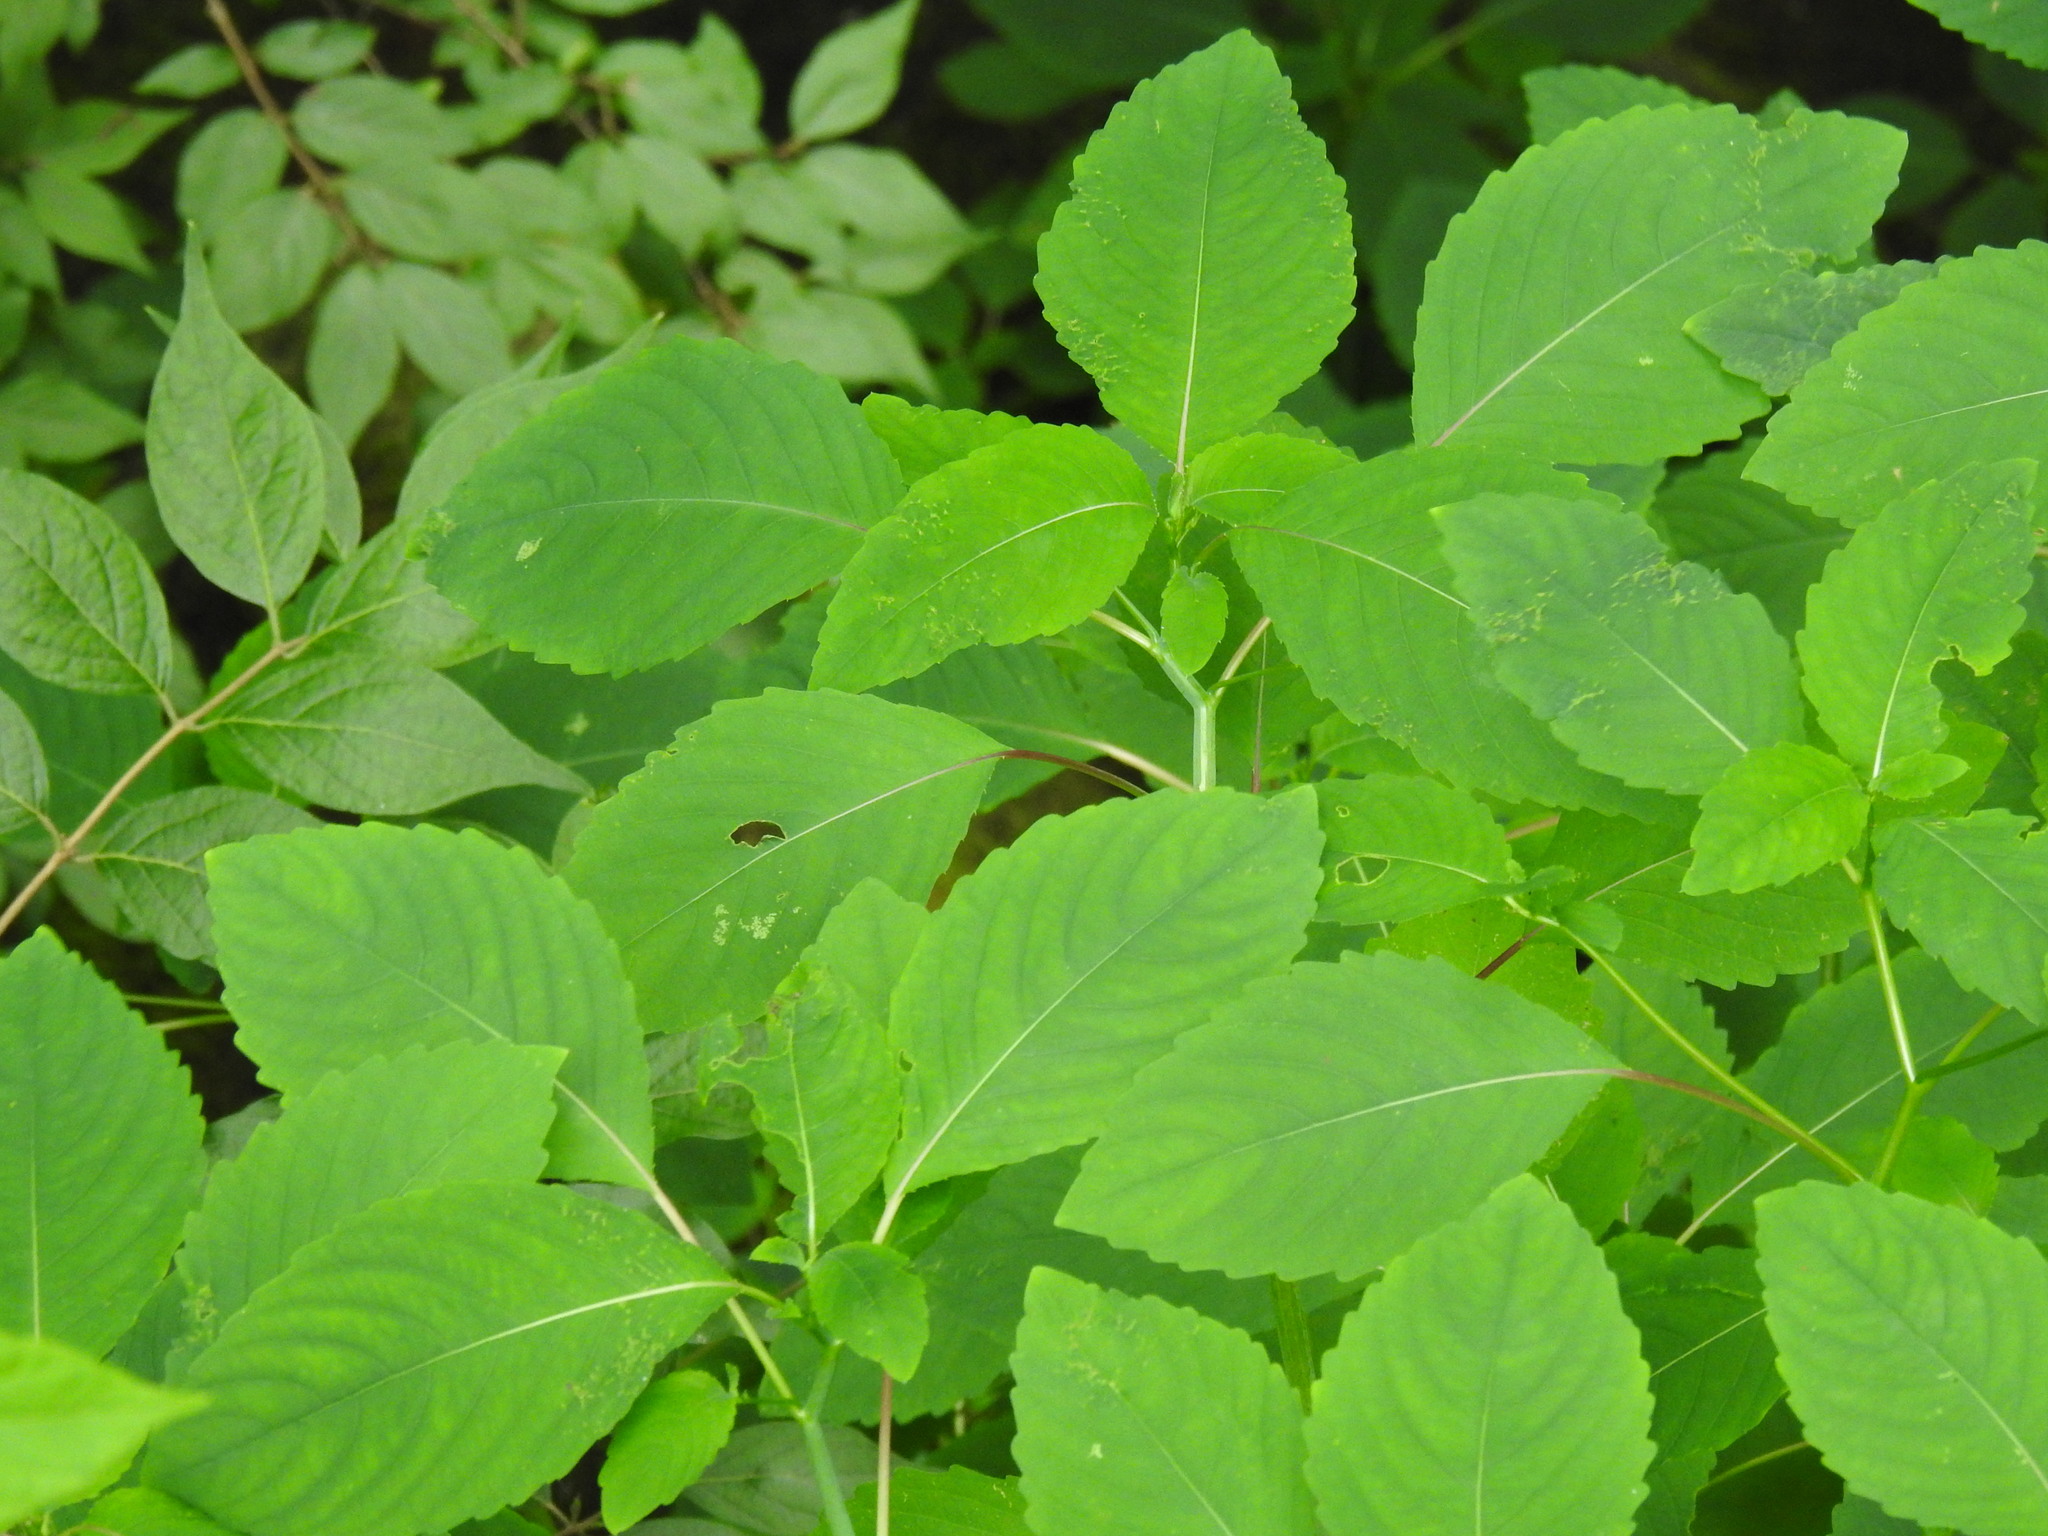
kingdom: Plantae
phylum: Tracheophyta
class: Magnoliopsida
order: Ericales
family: Balsaminaceae
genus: Impatiens
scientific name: Impatiens pallida
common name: Pale snapweed
